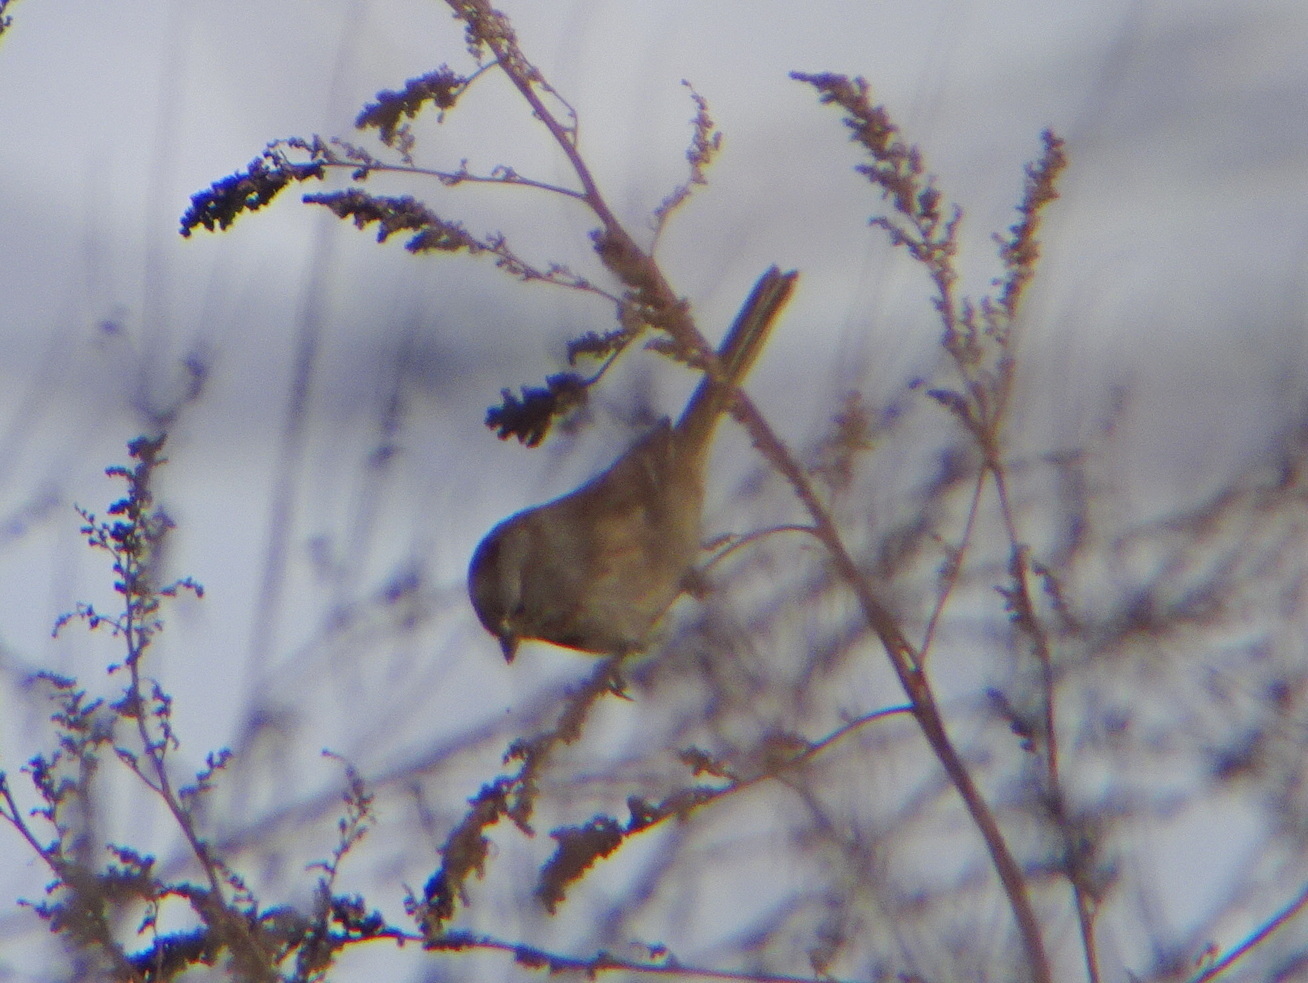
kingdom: Animalia
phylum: Chordata
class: Aves
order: Passeriformes
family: Passerellidae
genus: Spizelloides
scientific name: Spizelloides arborea
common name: American tree sparrow
